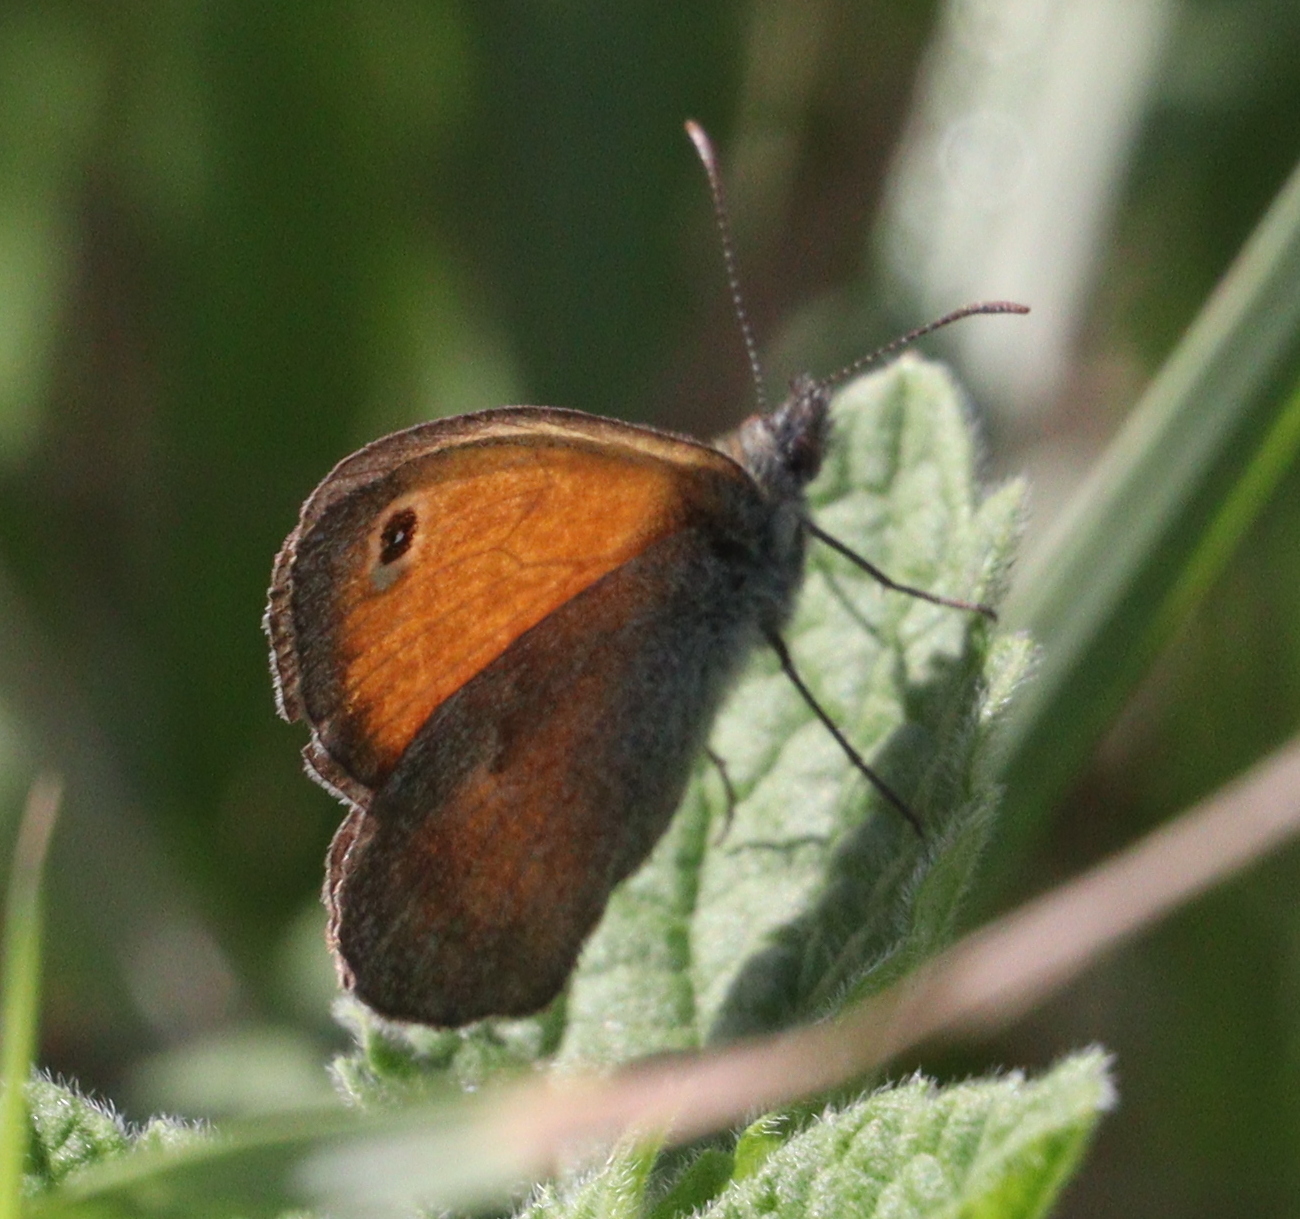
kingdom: Animalia
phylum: Arthropoda
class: Insecta
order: Lepidoptera
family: Nymphalidae
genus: Coenonympha
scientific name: Coenonympha pamphilus
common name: Small heath
